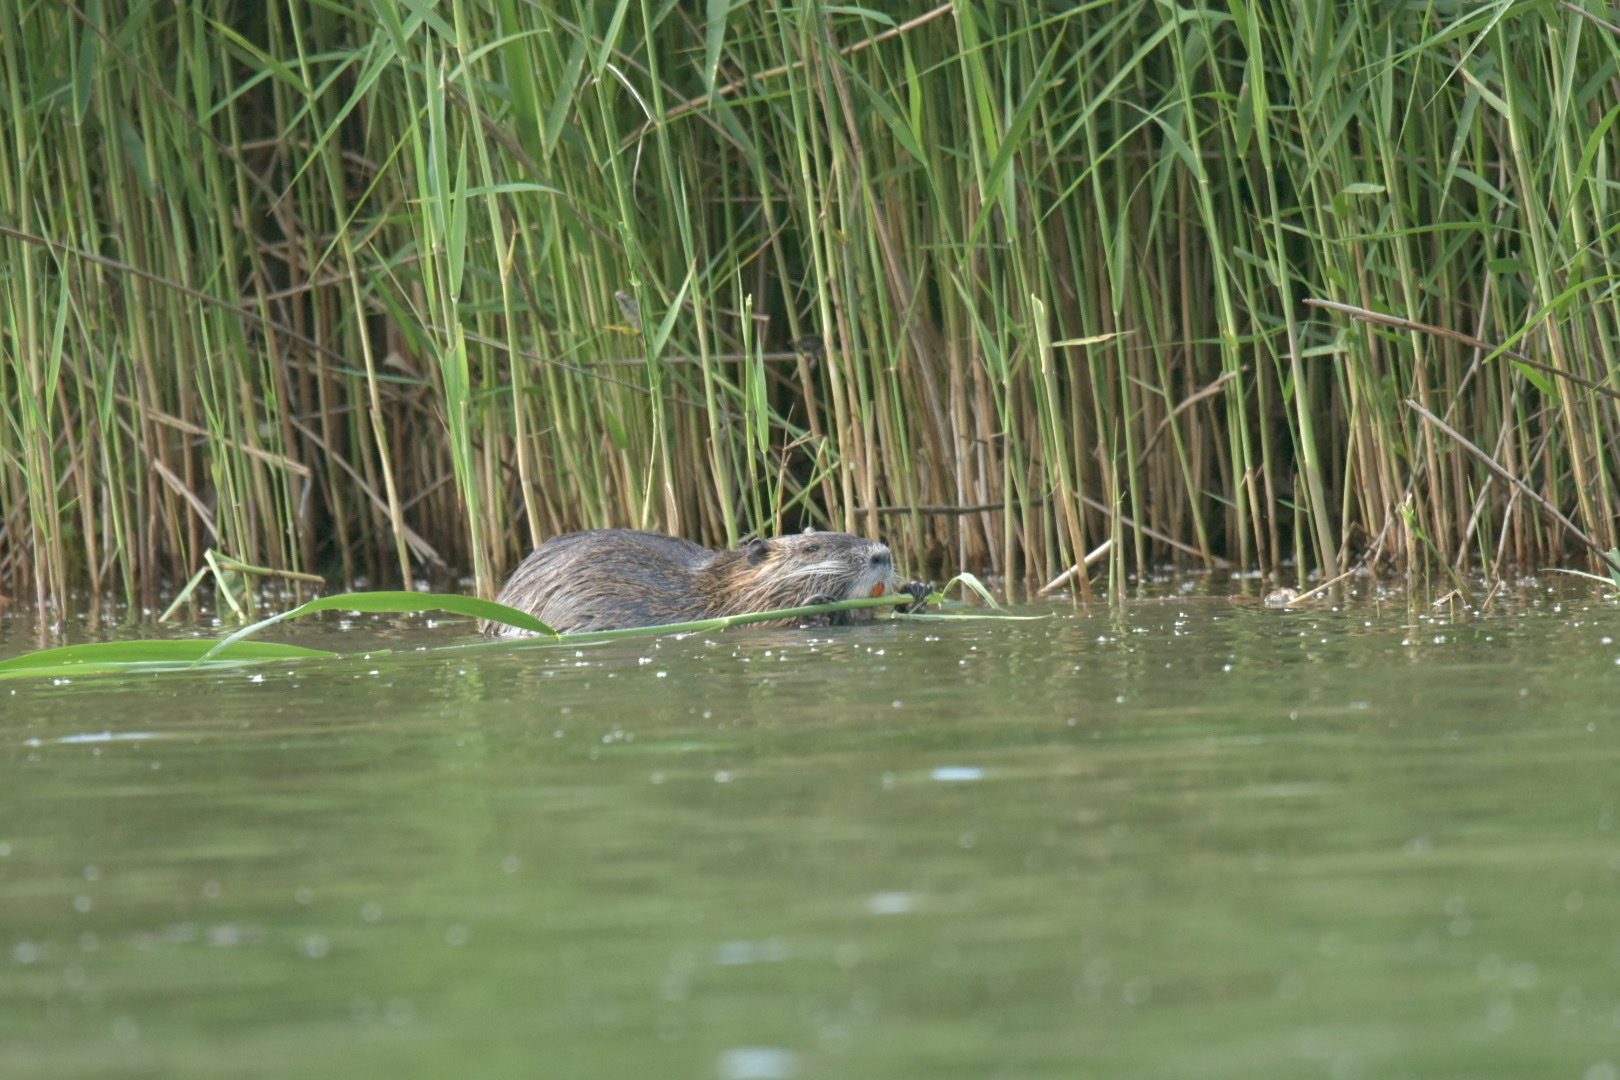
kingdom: Animalia
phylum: Chordata
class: Mammalia
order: Rodentia
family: Myocastoridae
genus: Myocastor
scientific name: Myocastor coypus
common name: Coypu
